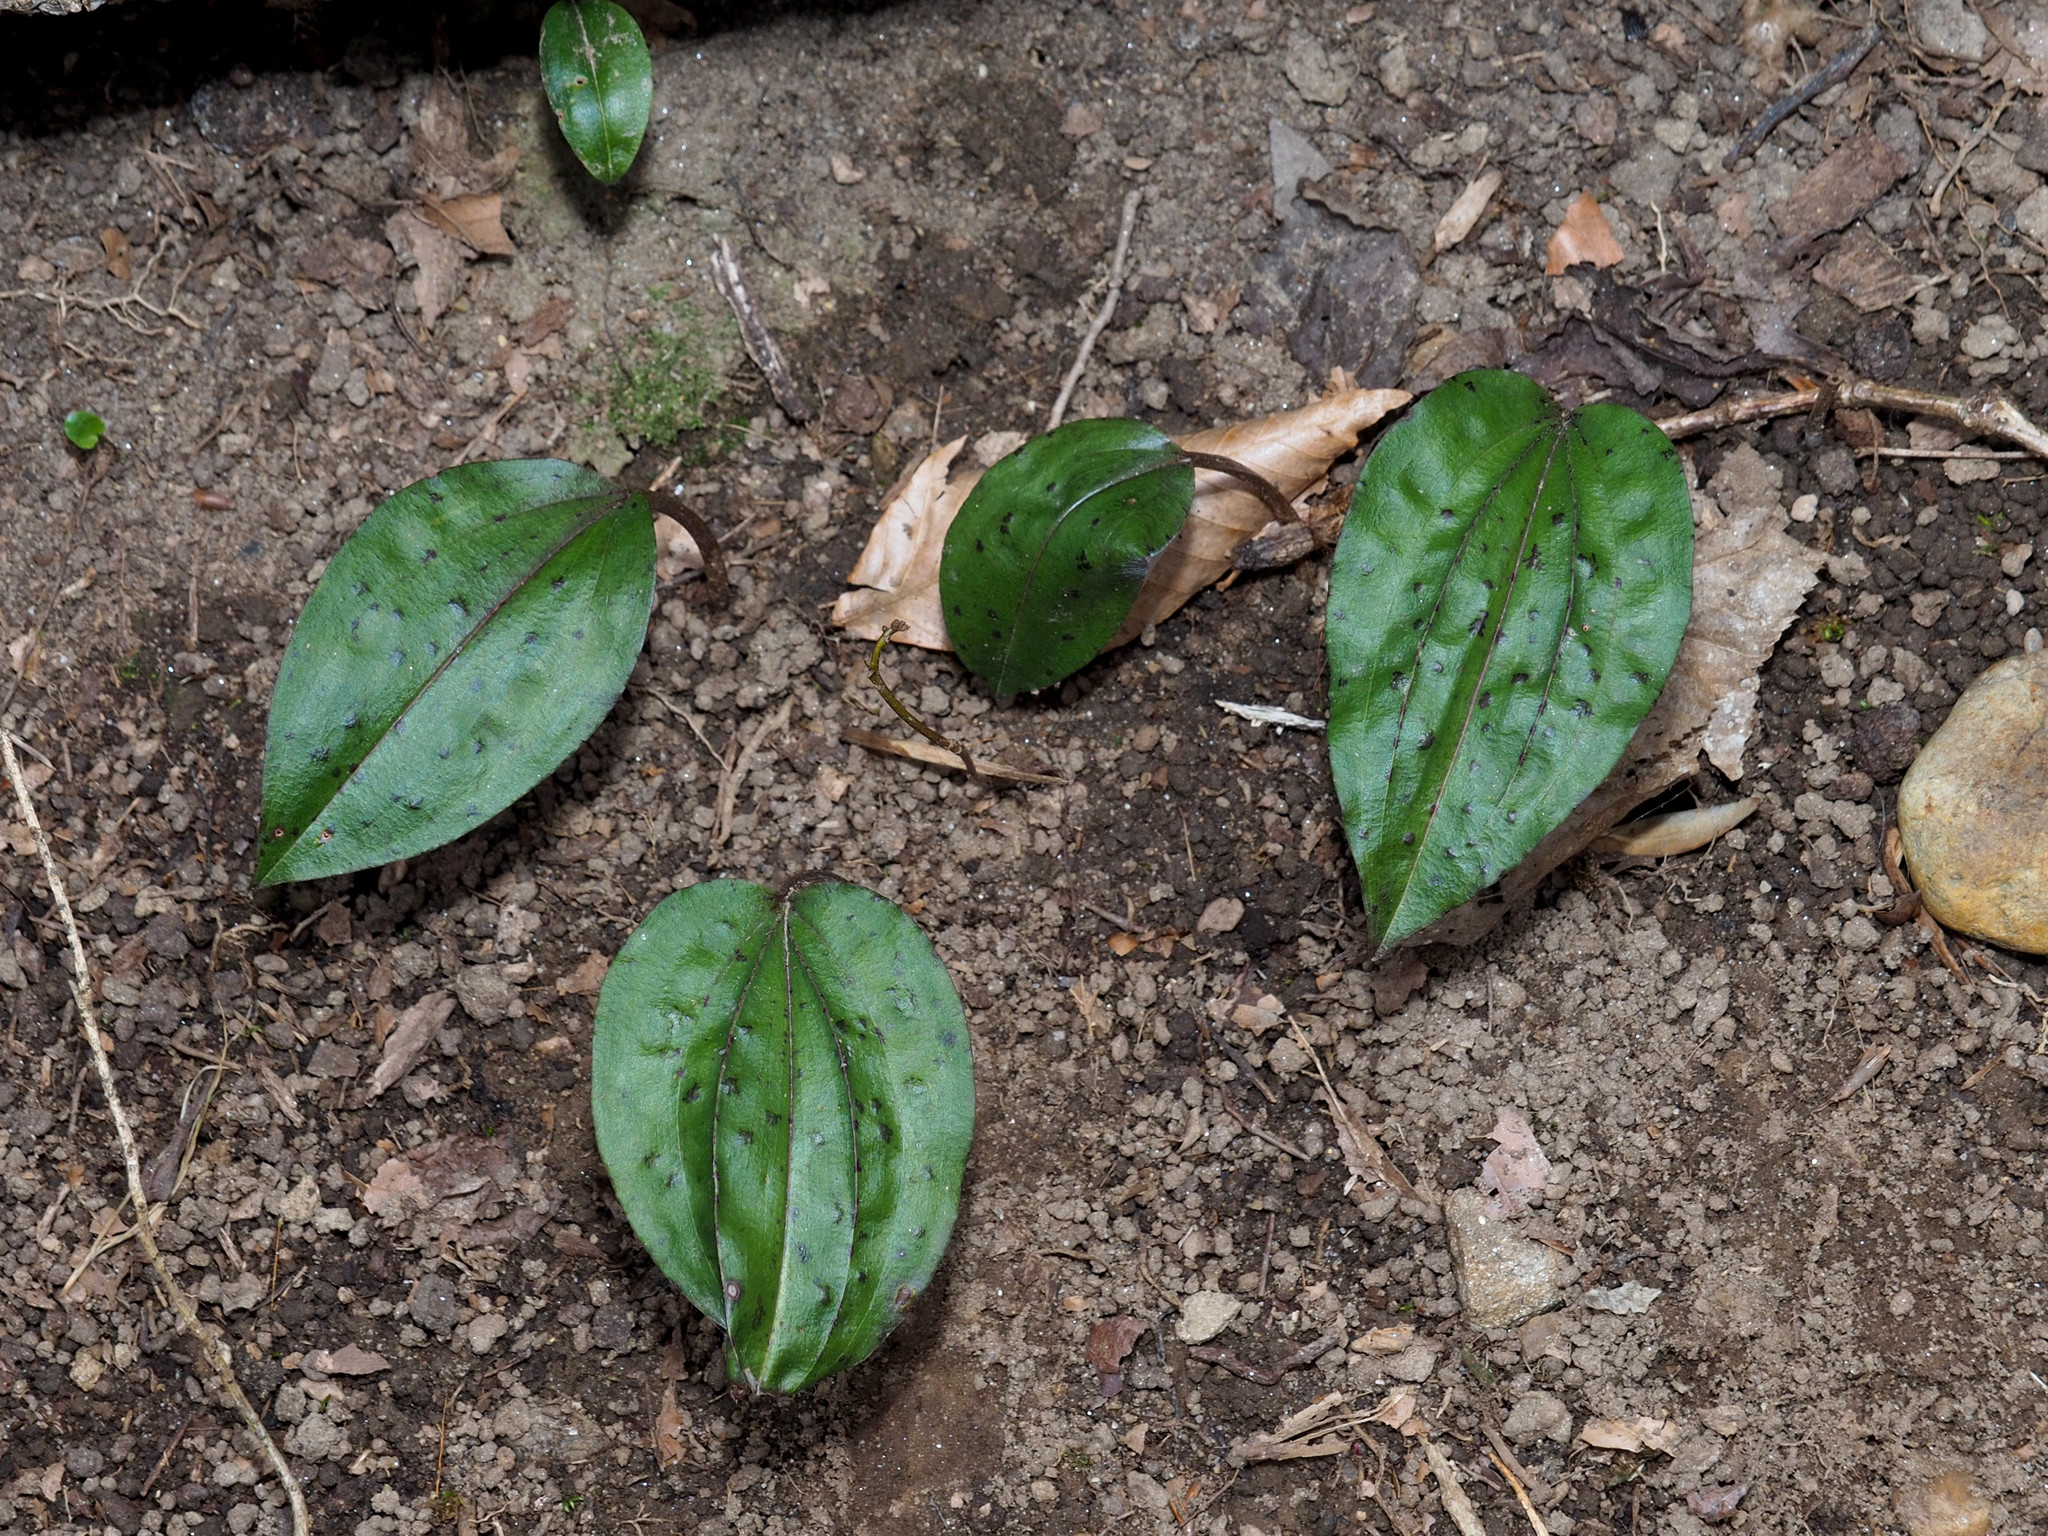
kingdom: Plantae
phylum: Tracheophyta
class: Liliopsida
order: Asparagales
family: Orchidaceae
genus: Tipularia
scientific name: Tipularia discolor
